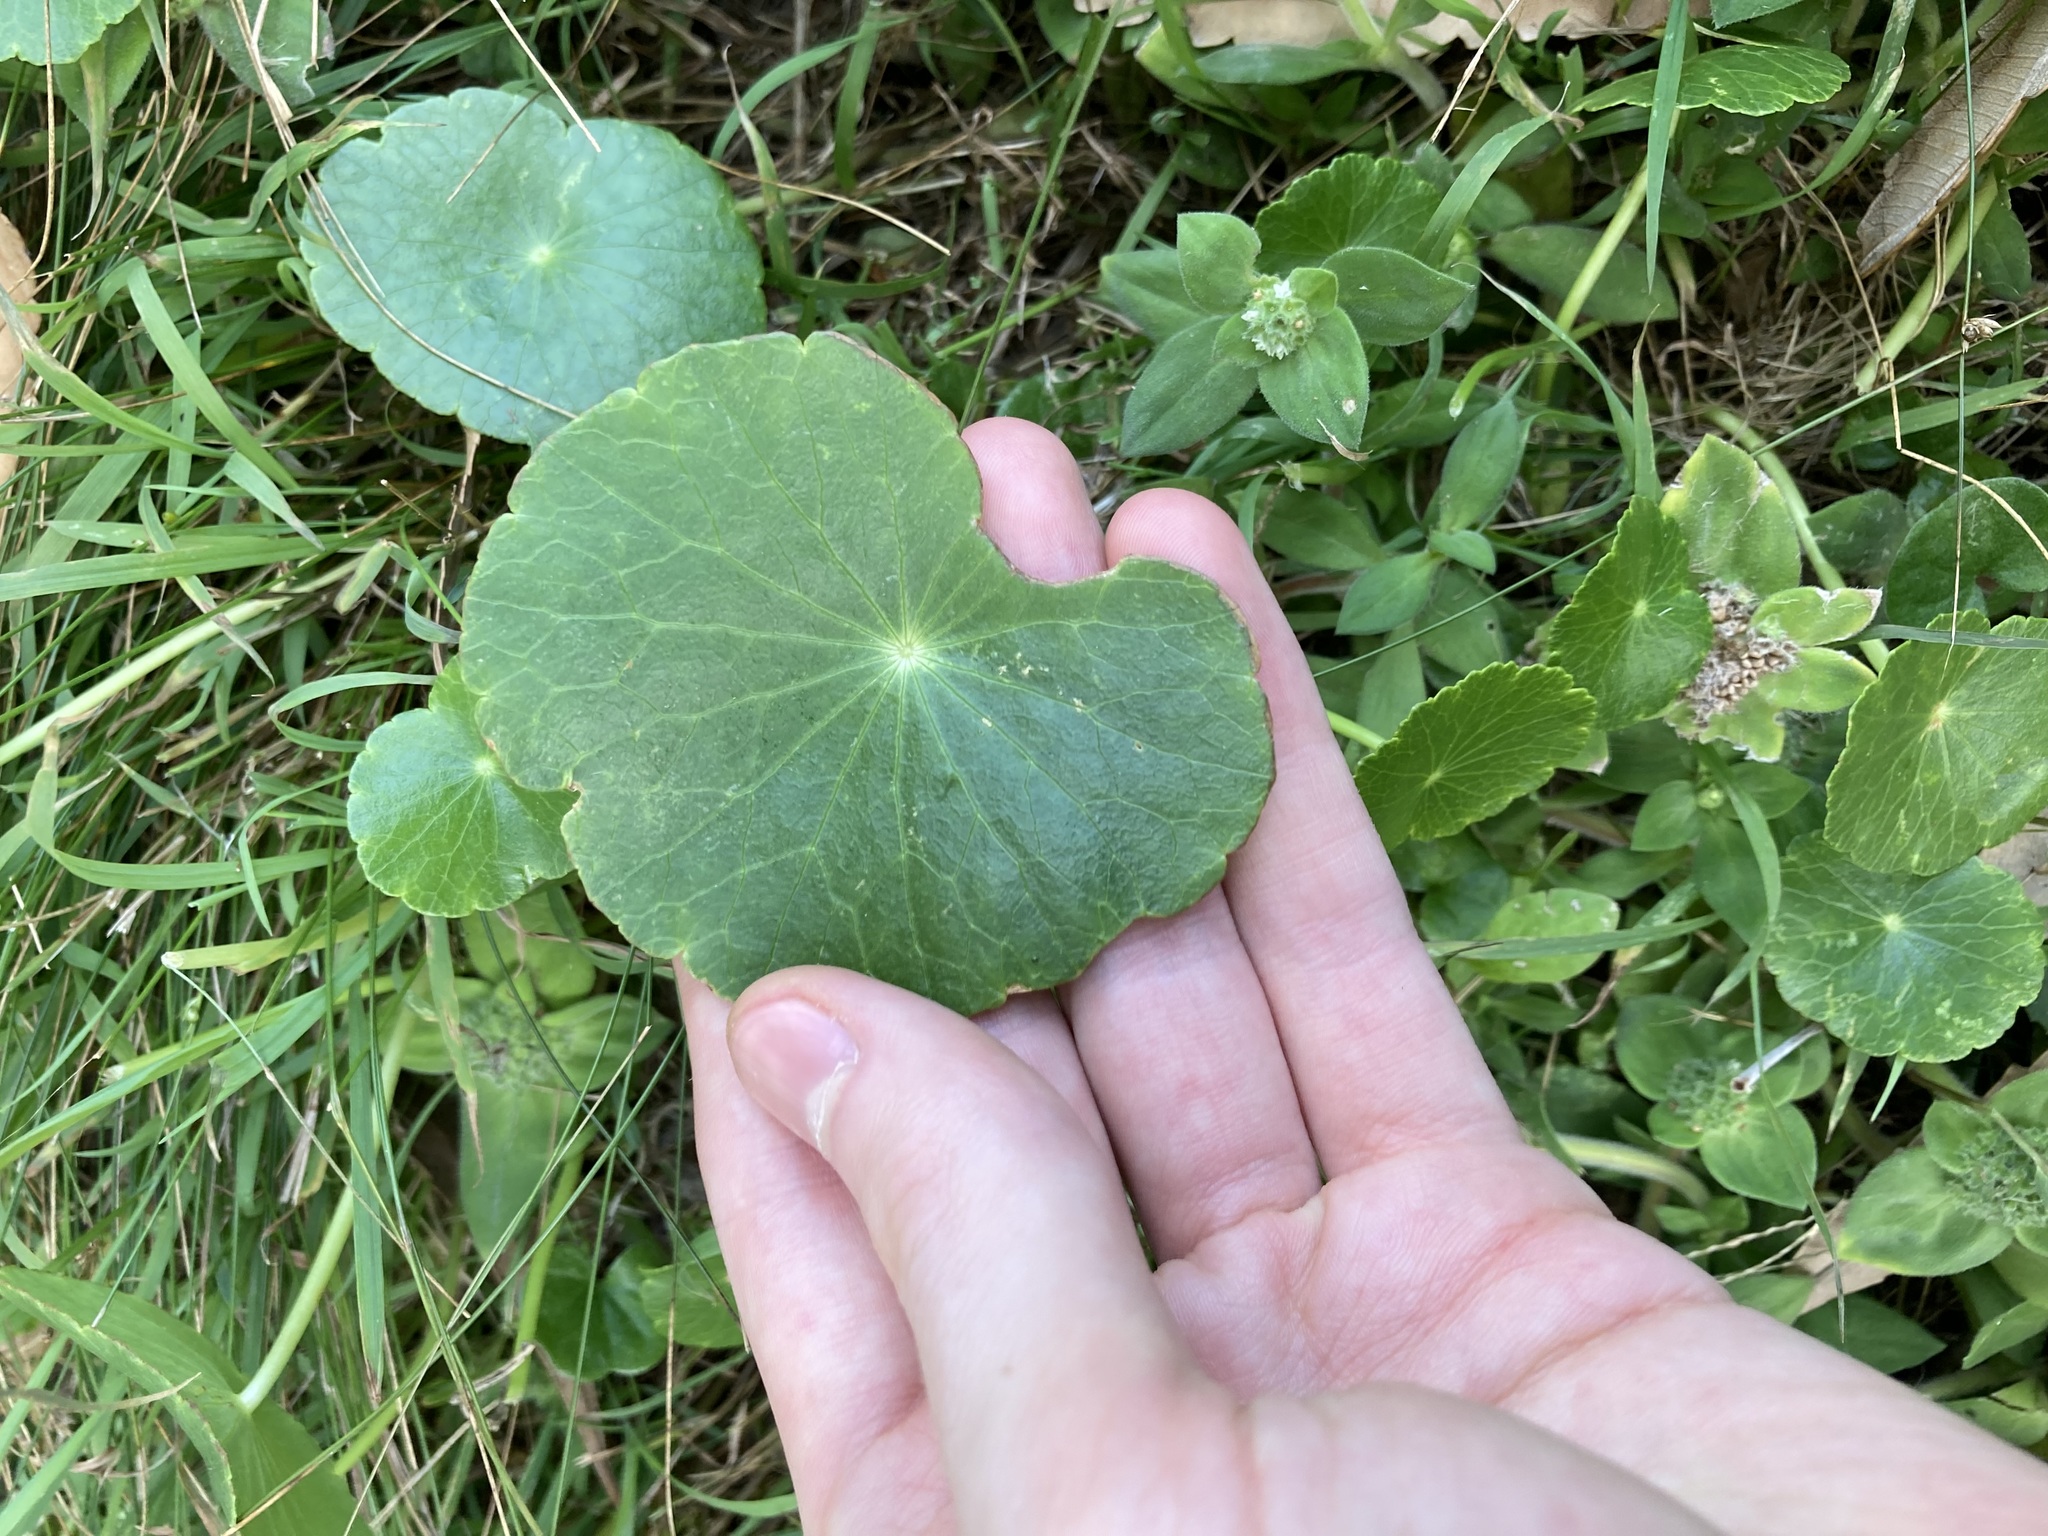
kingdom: Plantae
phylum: Tracheophyta
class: Magnoliopsida
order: Apiales
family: Araliaceae
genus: Hydrocotyle
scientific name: Hydrocotyle bonariensis
